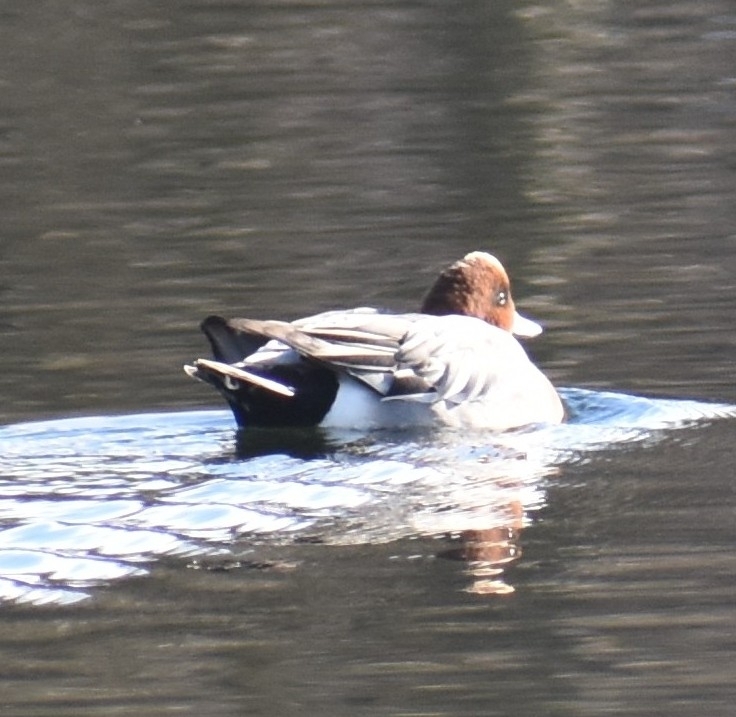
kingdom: Animalia
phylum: Chordata
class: Aves
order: Anseriformes
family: Anatidae
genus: Mareca
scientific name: Mareca penelope
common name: Eurasian wigeon
